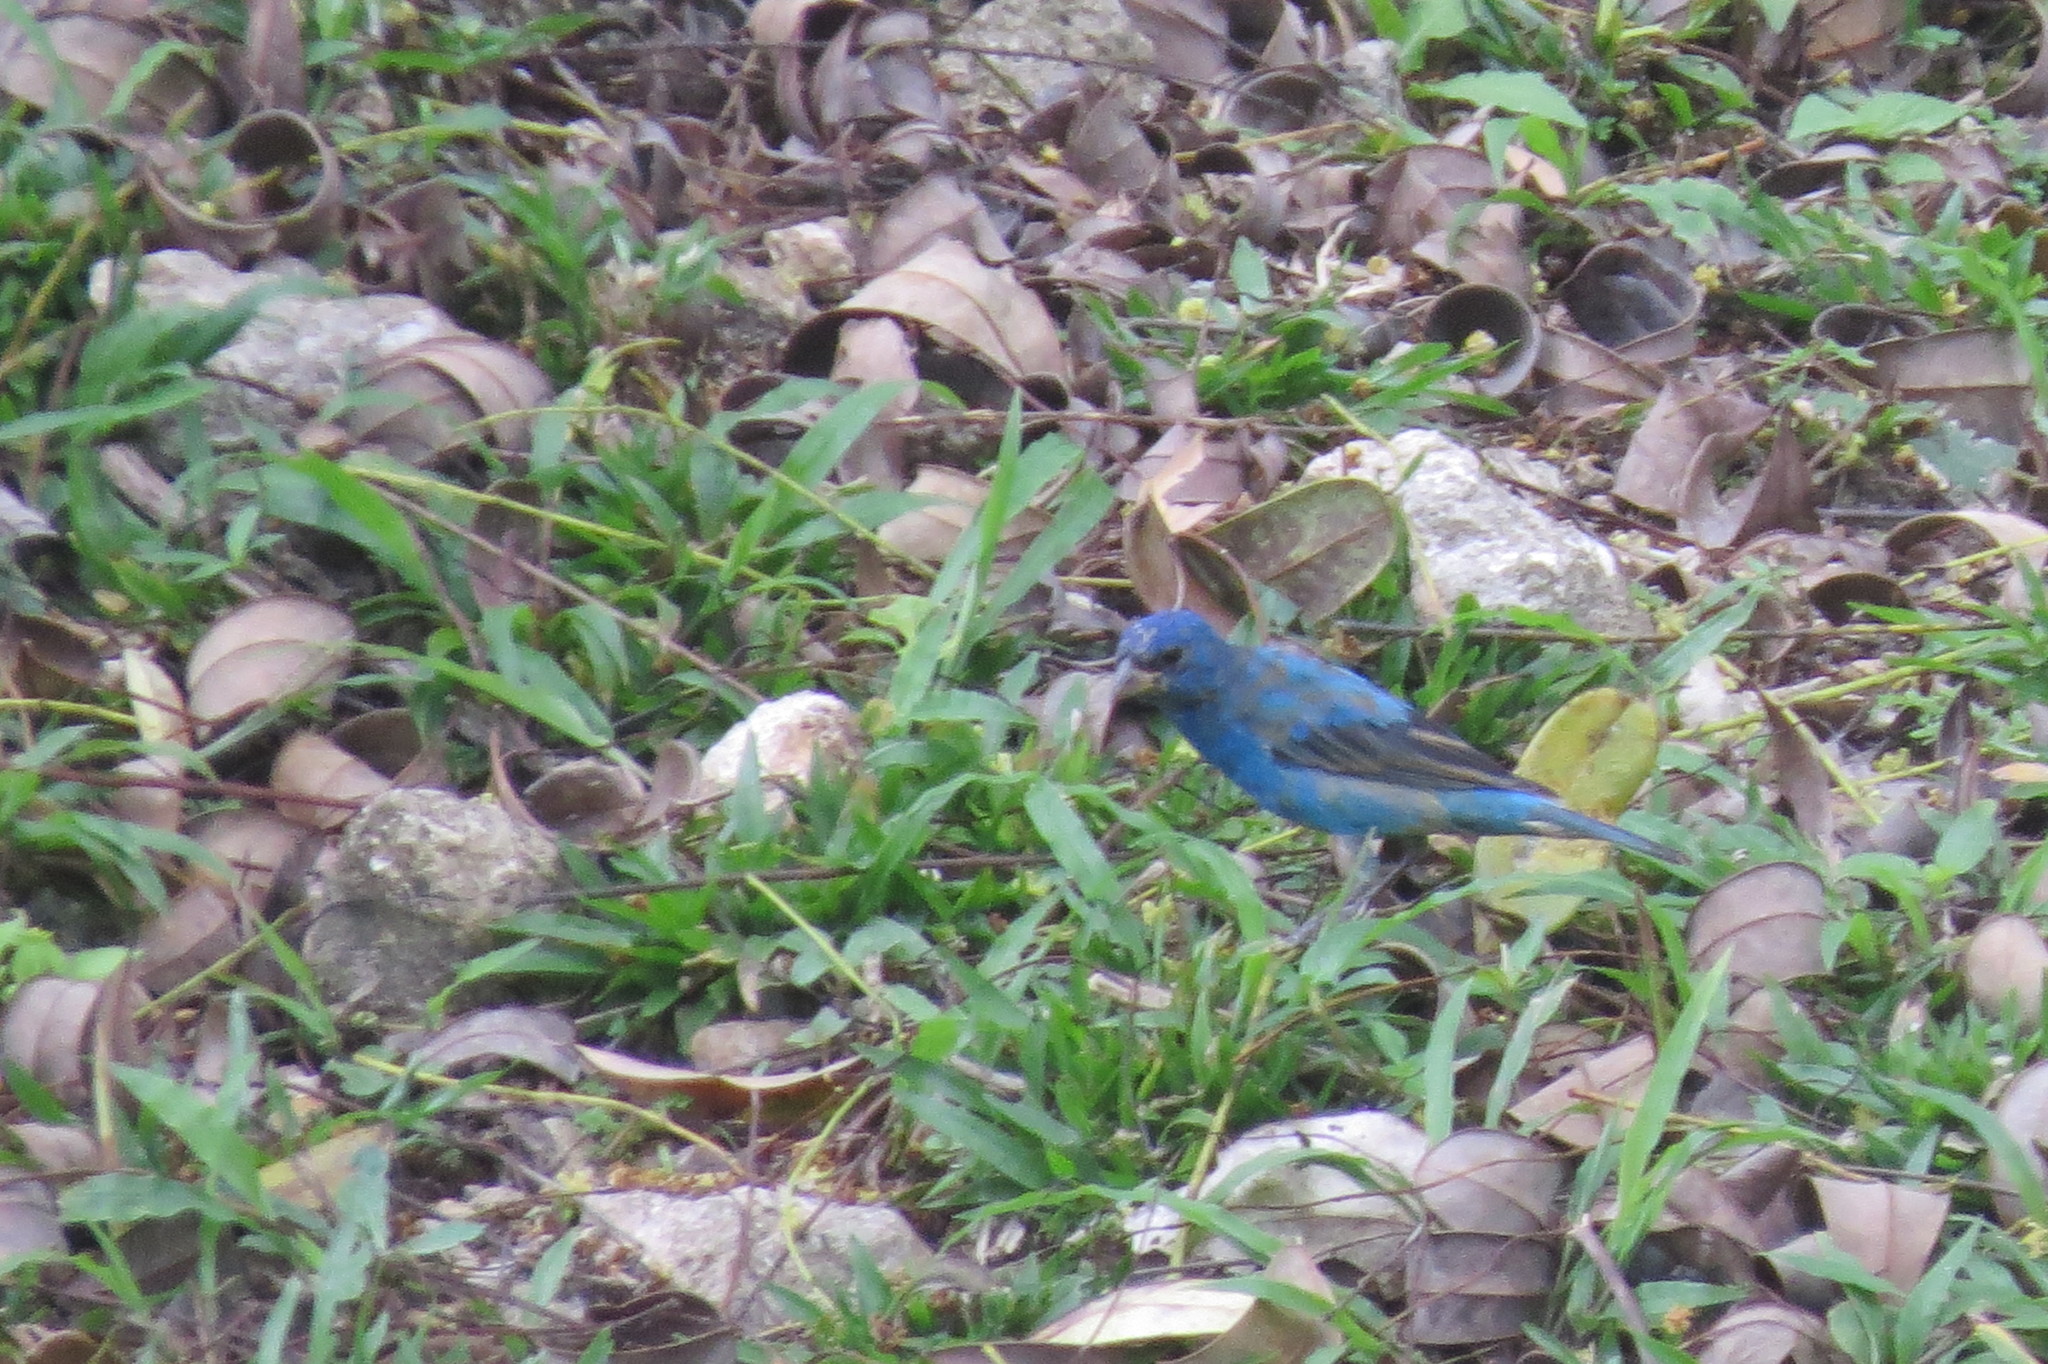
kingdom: Animalia
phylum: Chordata
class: Aves
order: Passeriformes
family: Cardinalidae
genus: Passerina
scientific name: Passerina cyanea
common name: Indigo bunting
